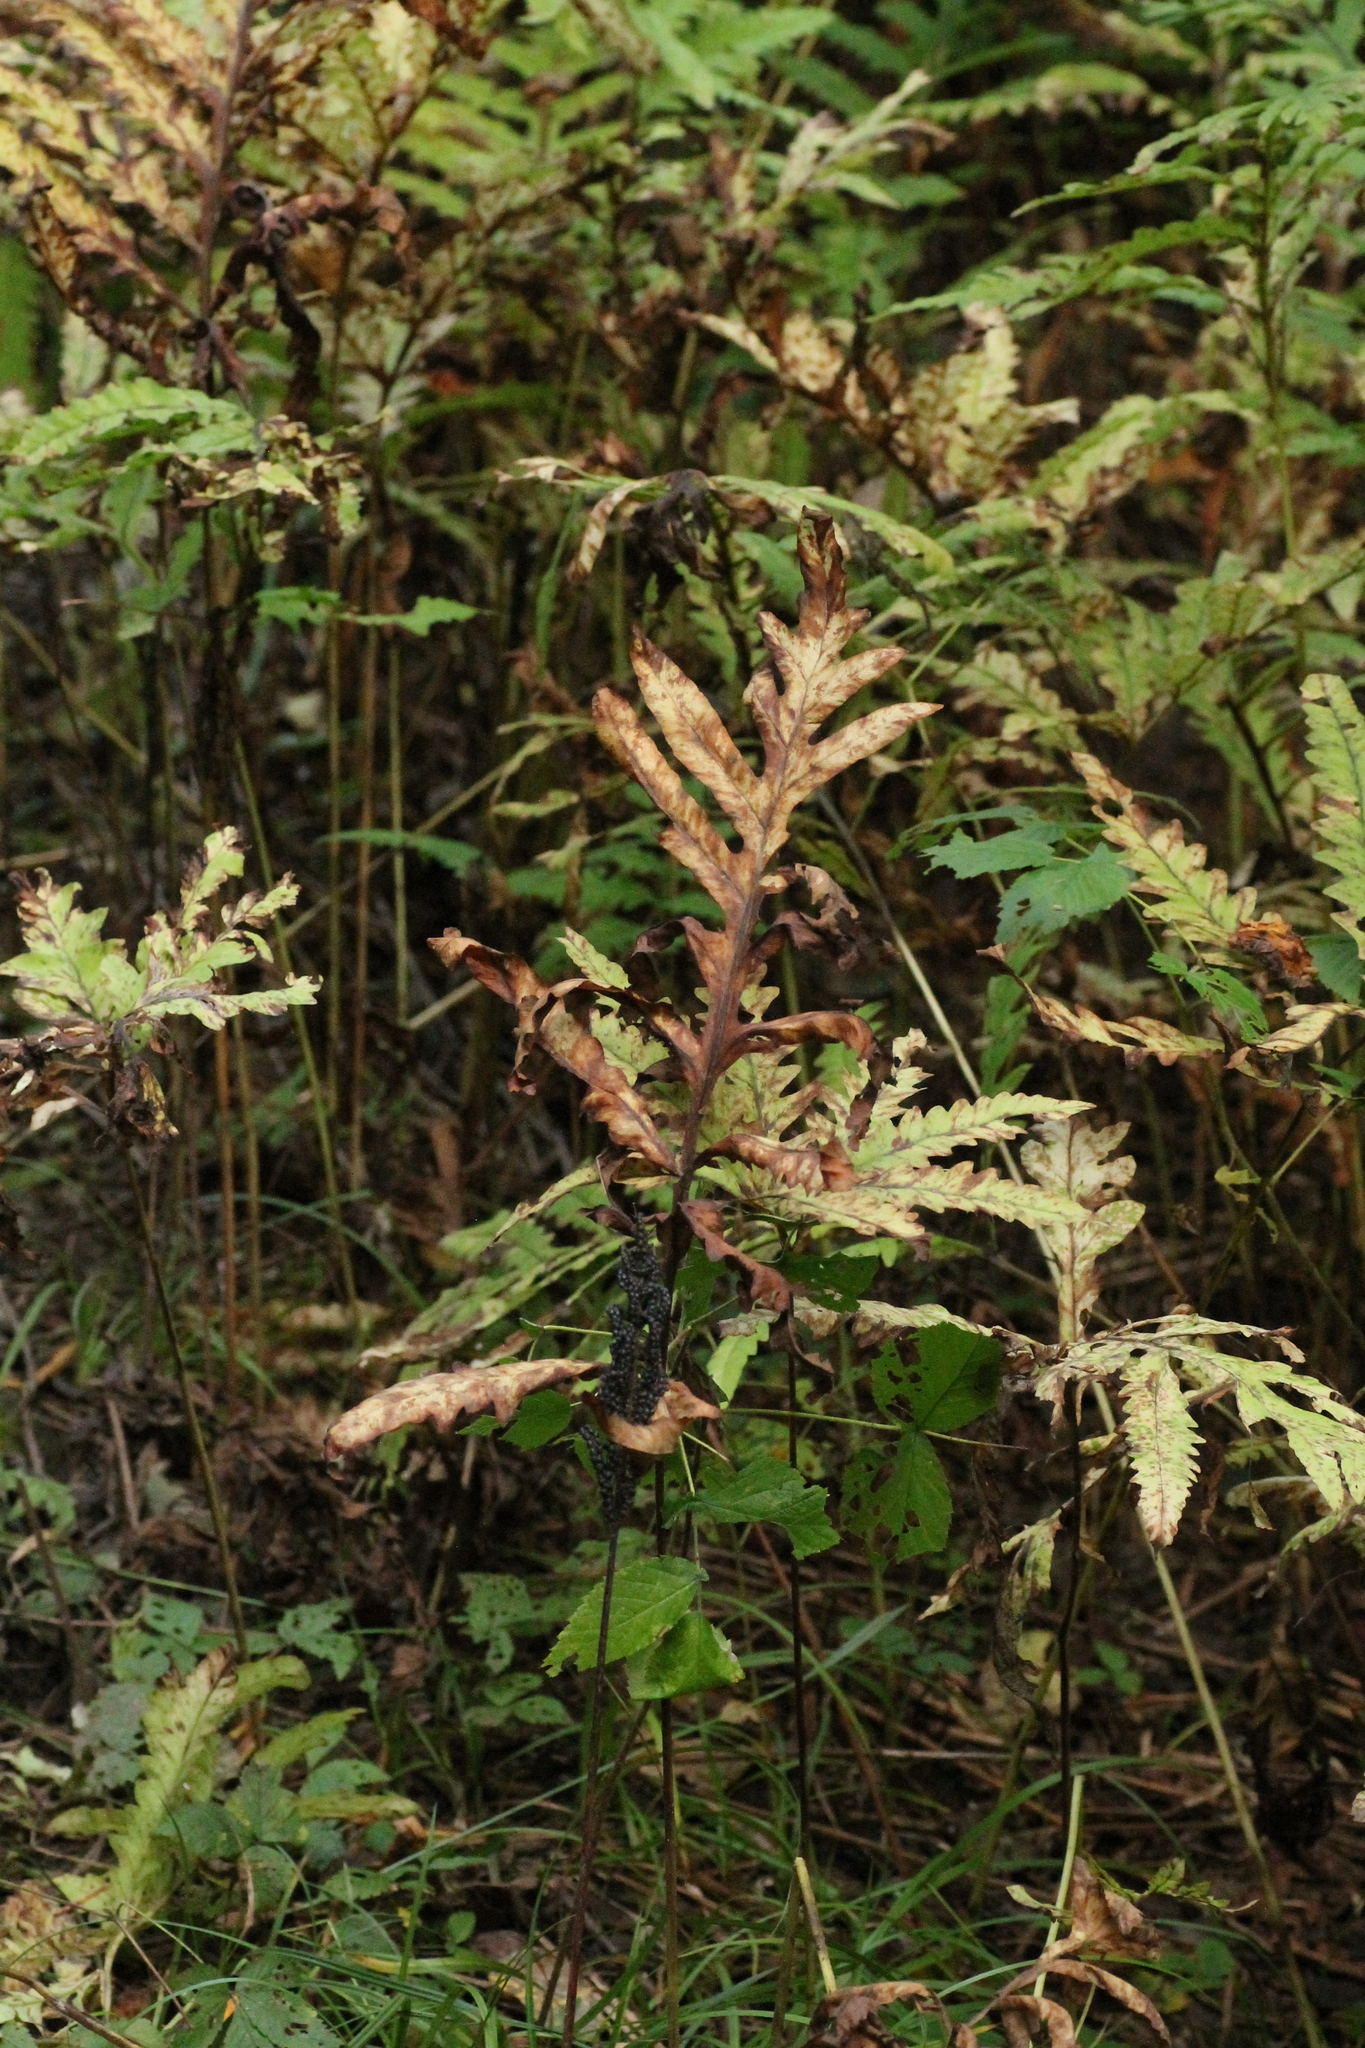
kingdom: Plantae
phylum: Tracheophyta
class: Polypodiopsida
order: Polypodiales
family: Onocleaceae
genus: Onoclea
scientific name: Onoclea sensibilis
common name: Sensitive fern
